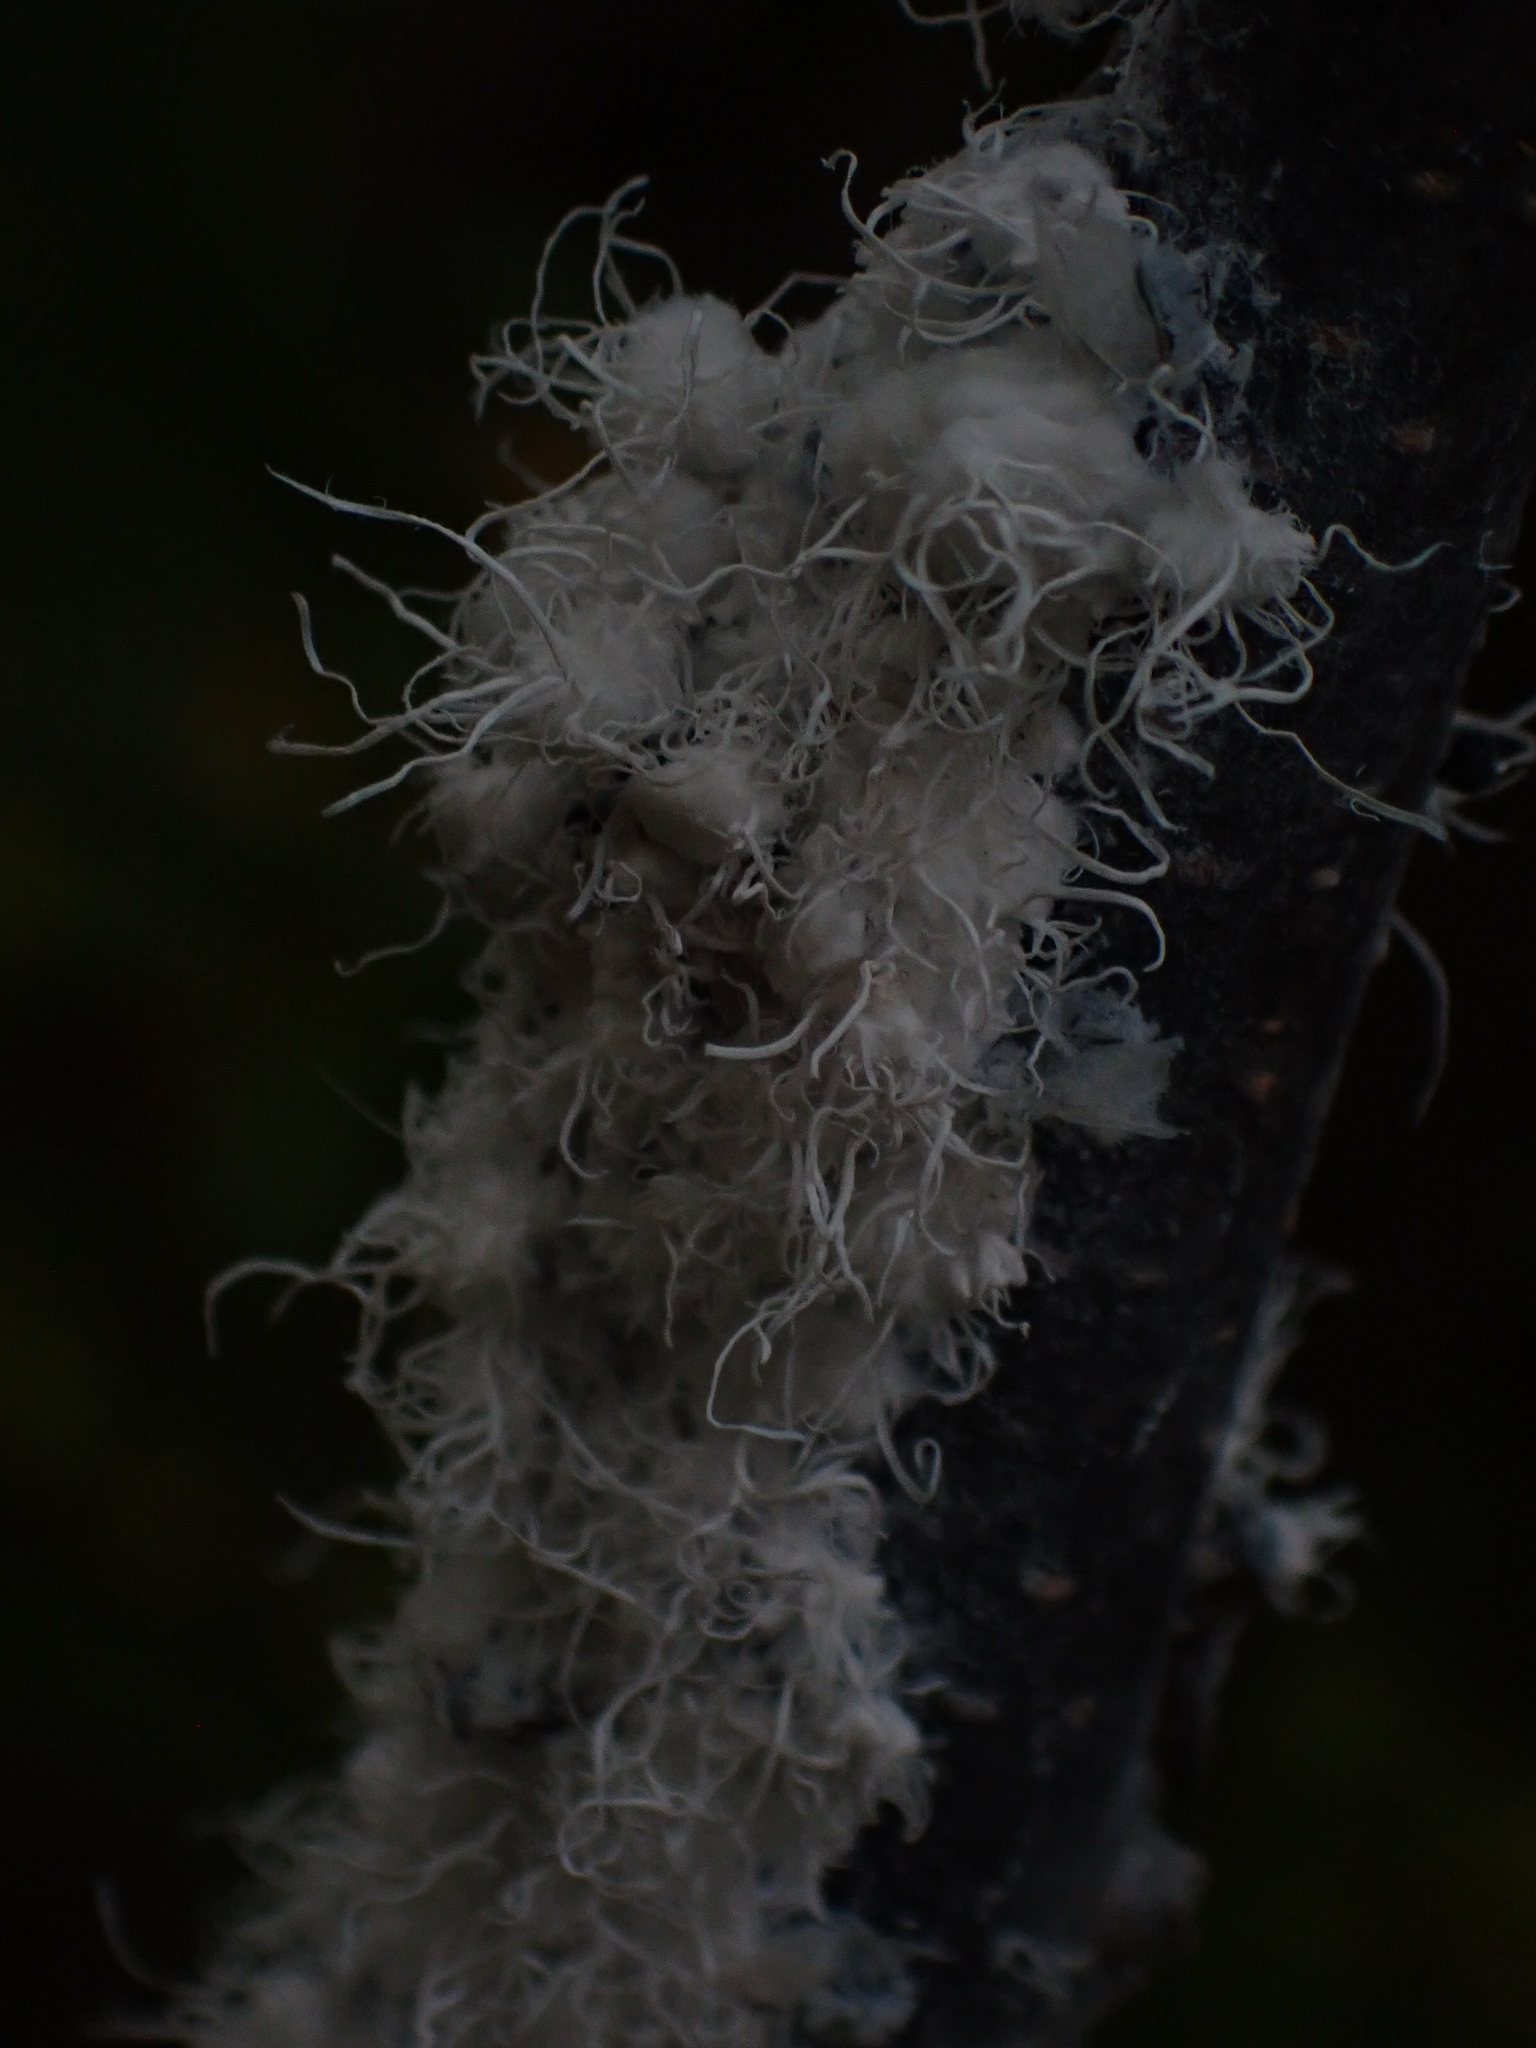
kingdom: Animalia
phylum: Arthropoda
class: Insecta
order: Hemiptera
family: Aphididae
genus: Prociphilus
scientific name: Prociphilus tessellatus
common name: Woolly alder aphid
